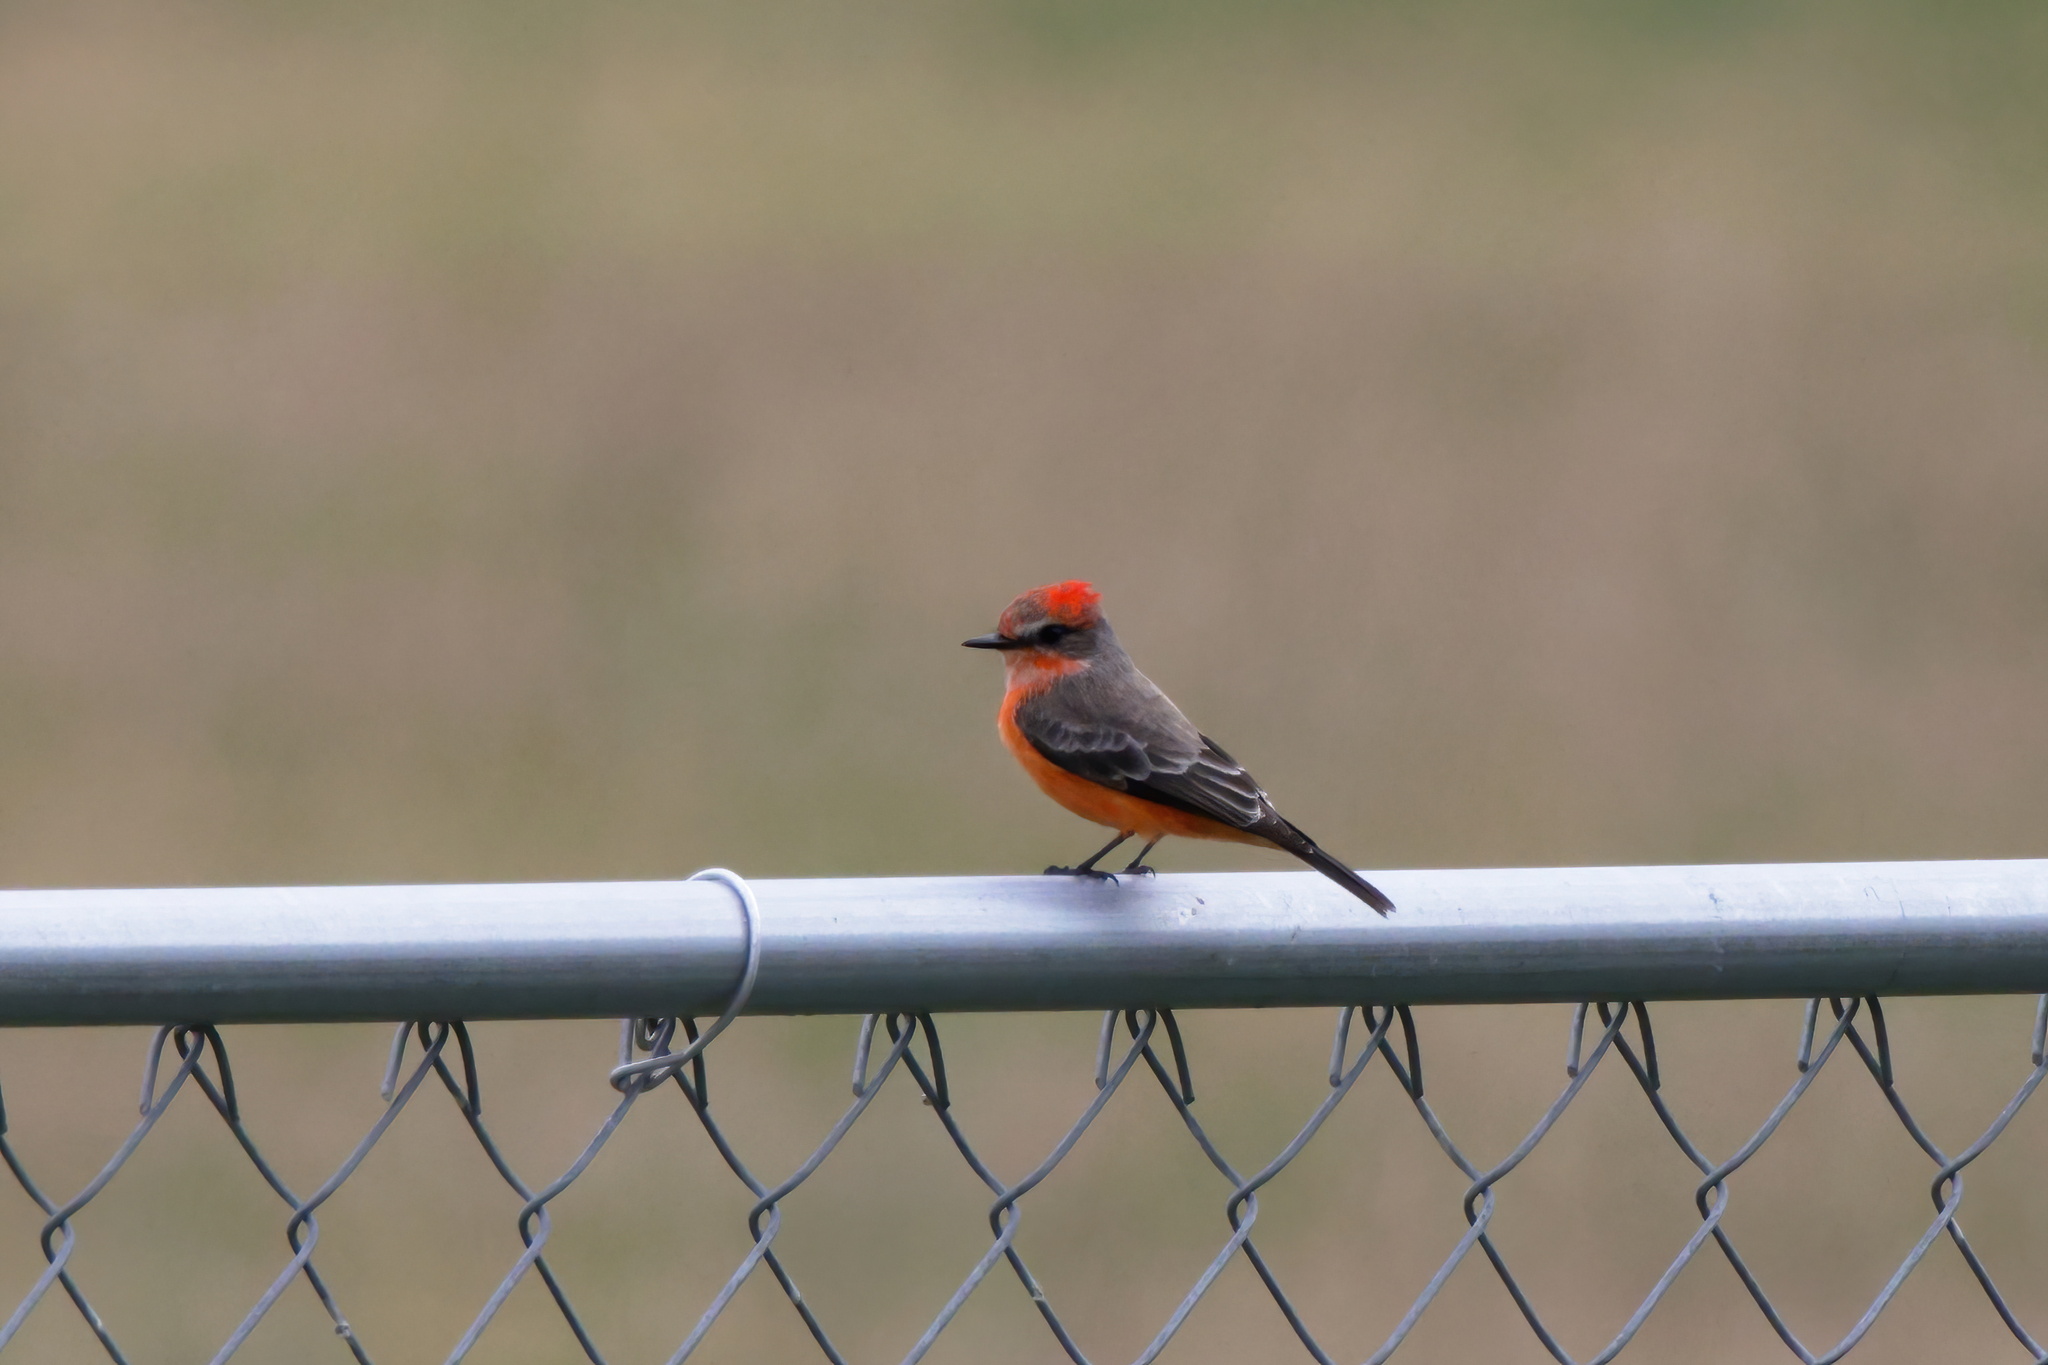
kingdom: Animalia
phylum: Chordata
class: Aves
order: Passeriformes
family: Tyrannidae
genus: Pyrocephalus
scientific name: Pyrocephalus rubinus
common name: Vermilion flycatcher
